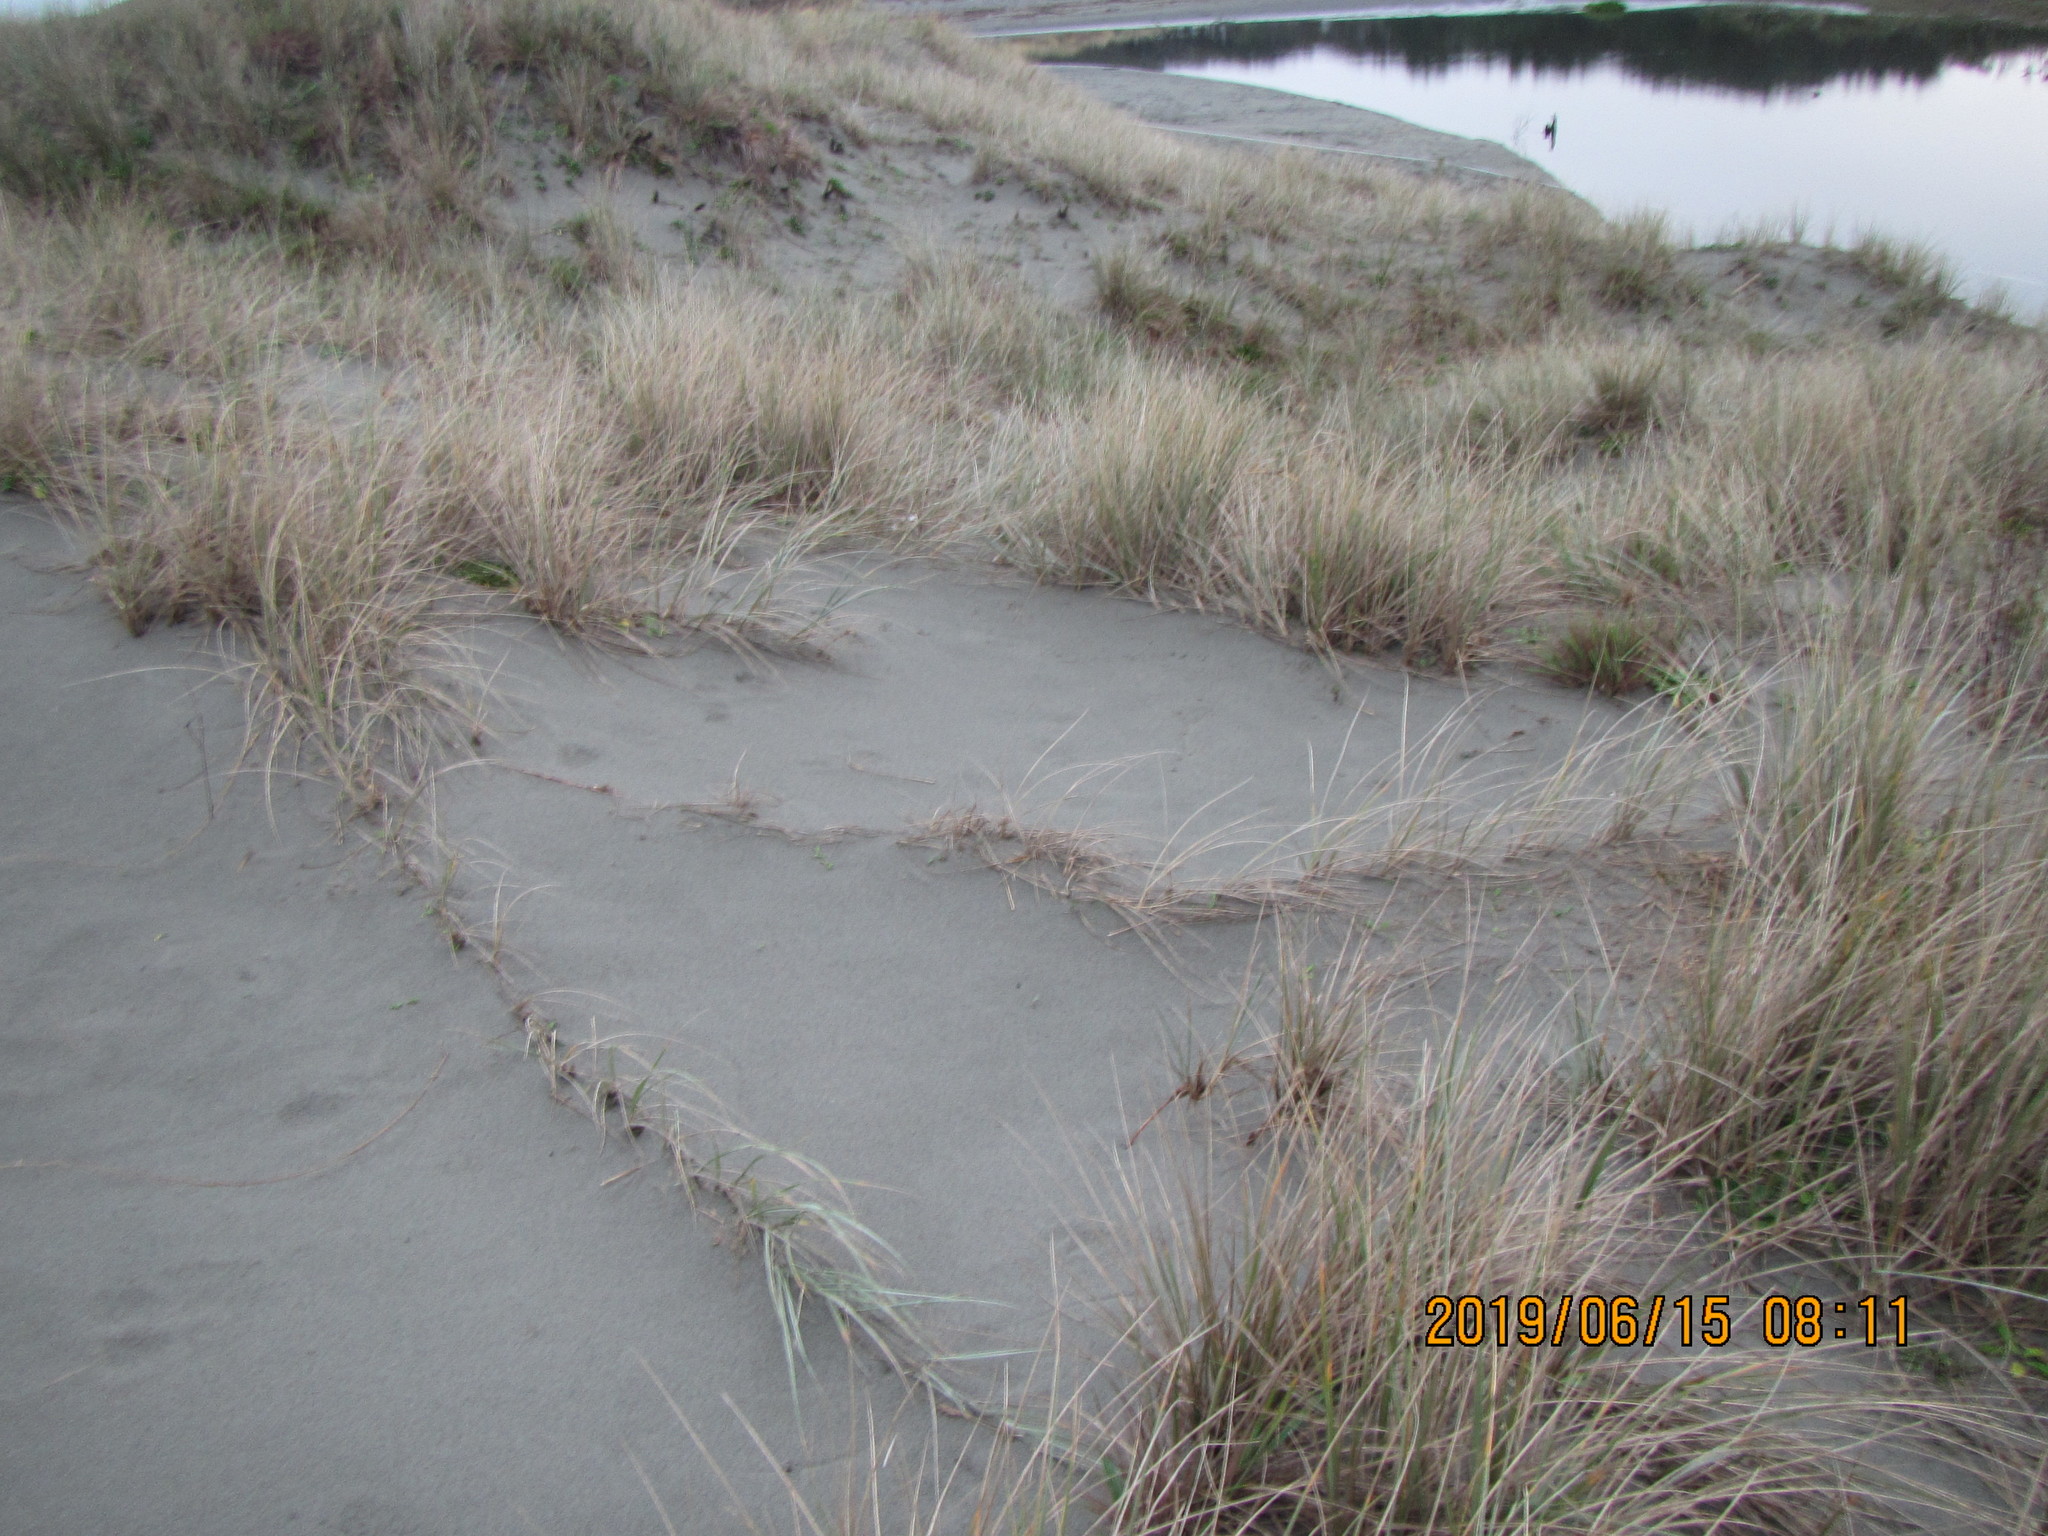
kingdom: Plantae
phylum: Tracheophyta
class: Liliopsida
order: Poales
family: Poaceae
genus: Spinifex
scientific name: Spinifex sericeus
